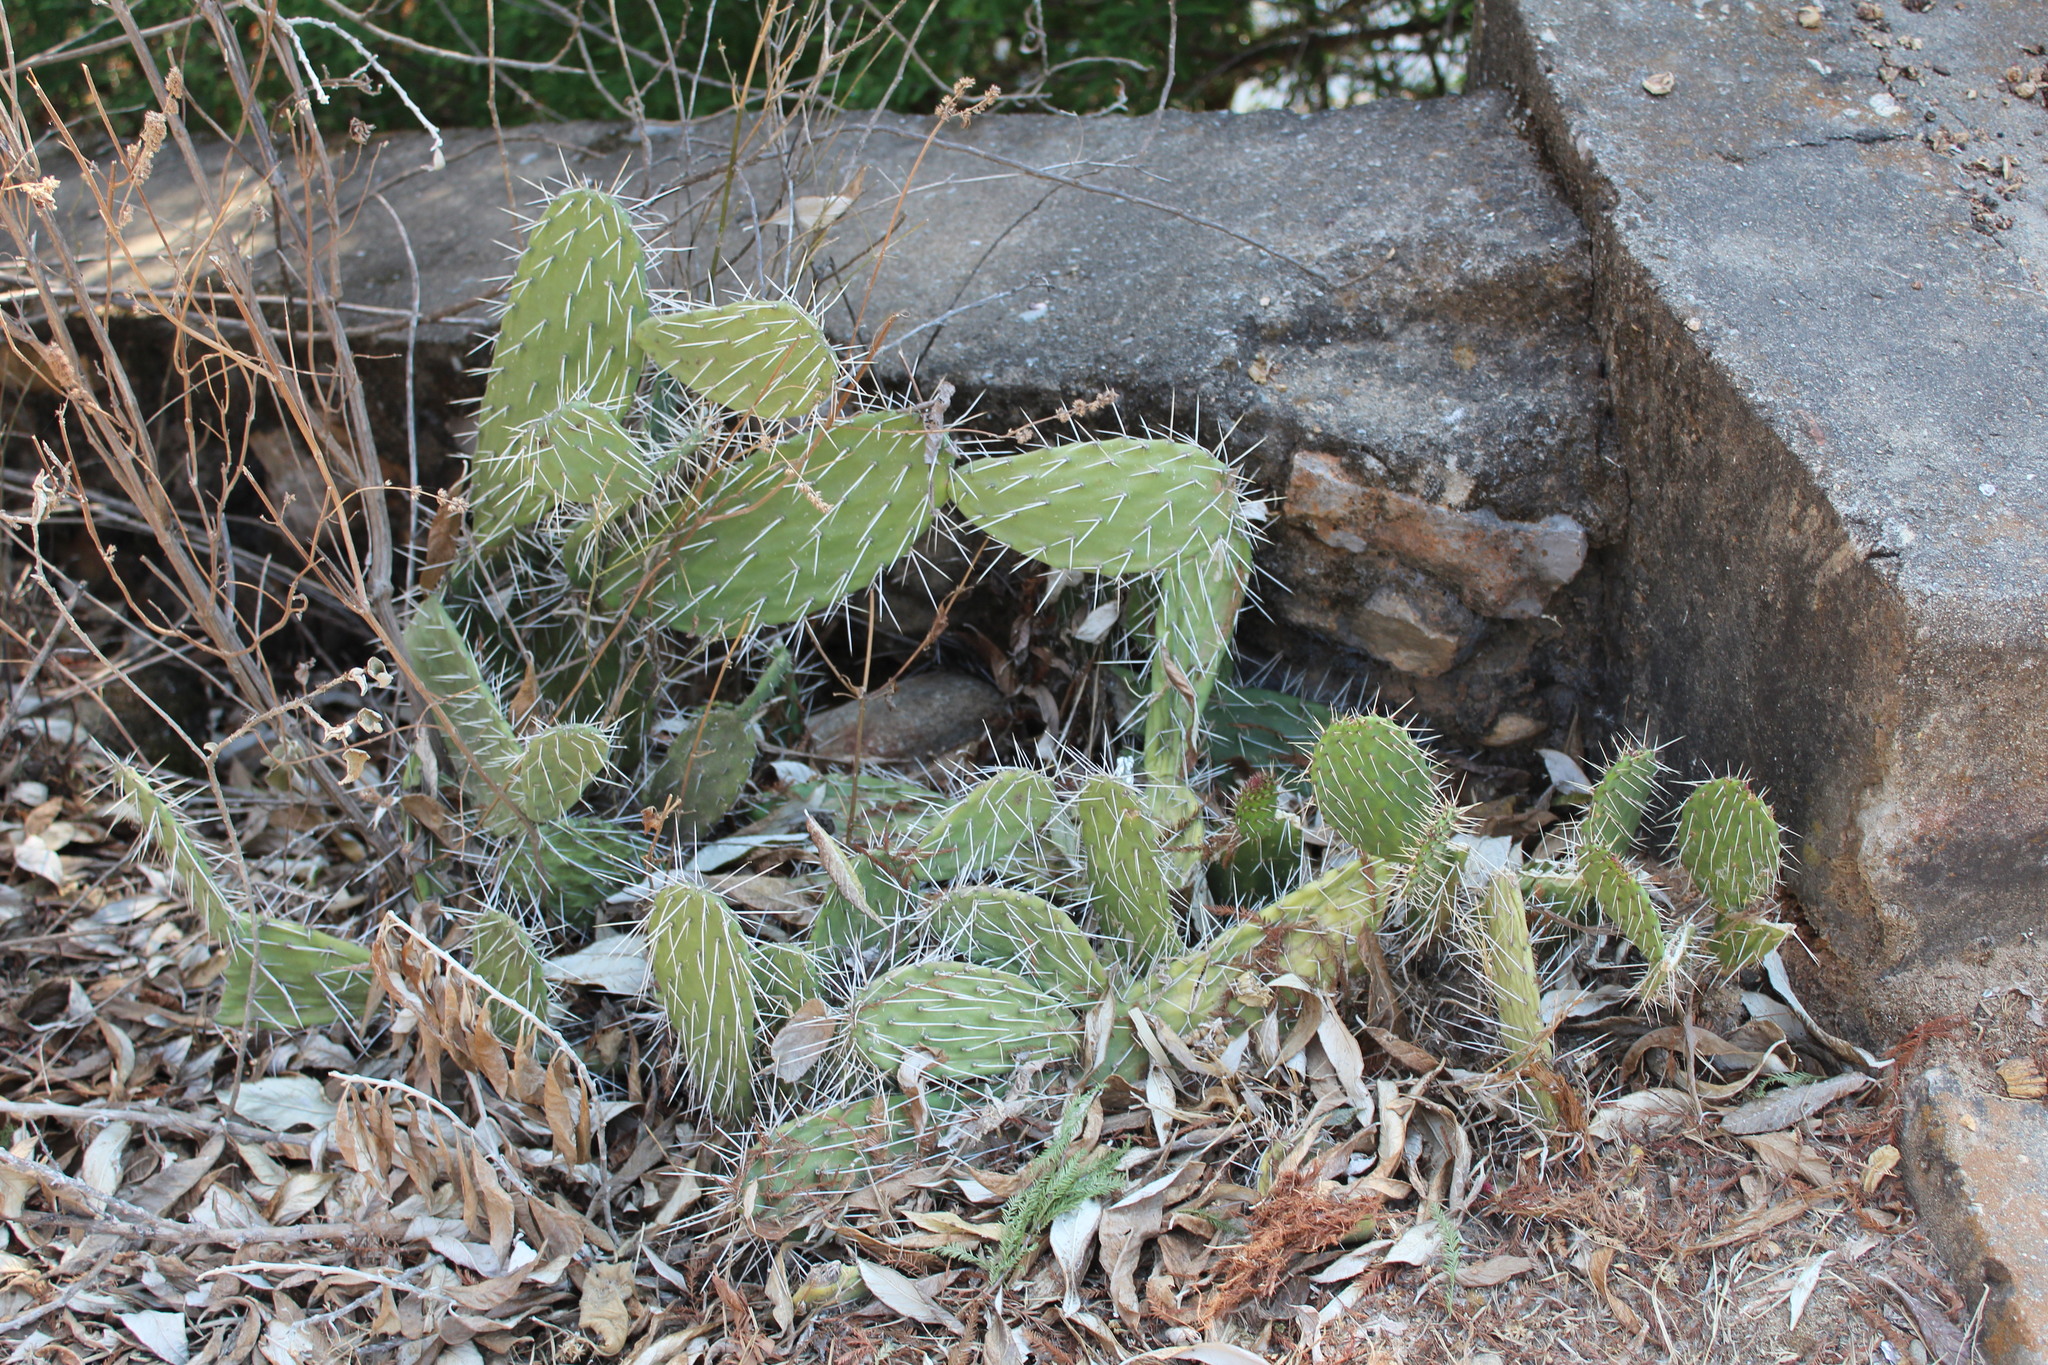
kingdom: Plantae
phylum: Tracheophyta
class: Magnoliopsida
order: Caryophyllales
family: Cactaceae
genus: Opuntia
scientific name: Opuntia decumbens
